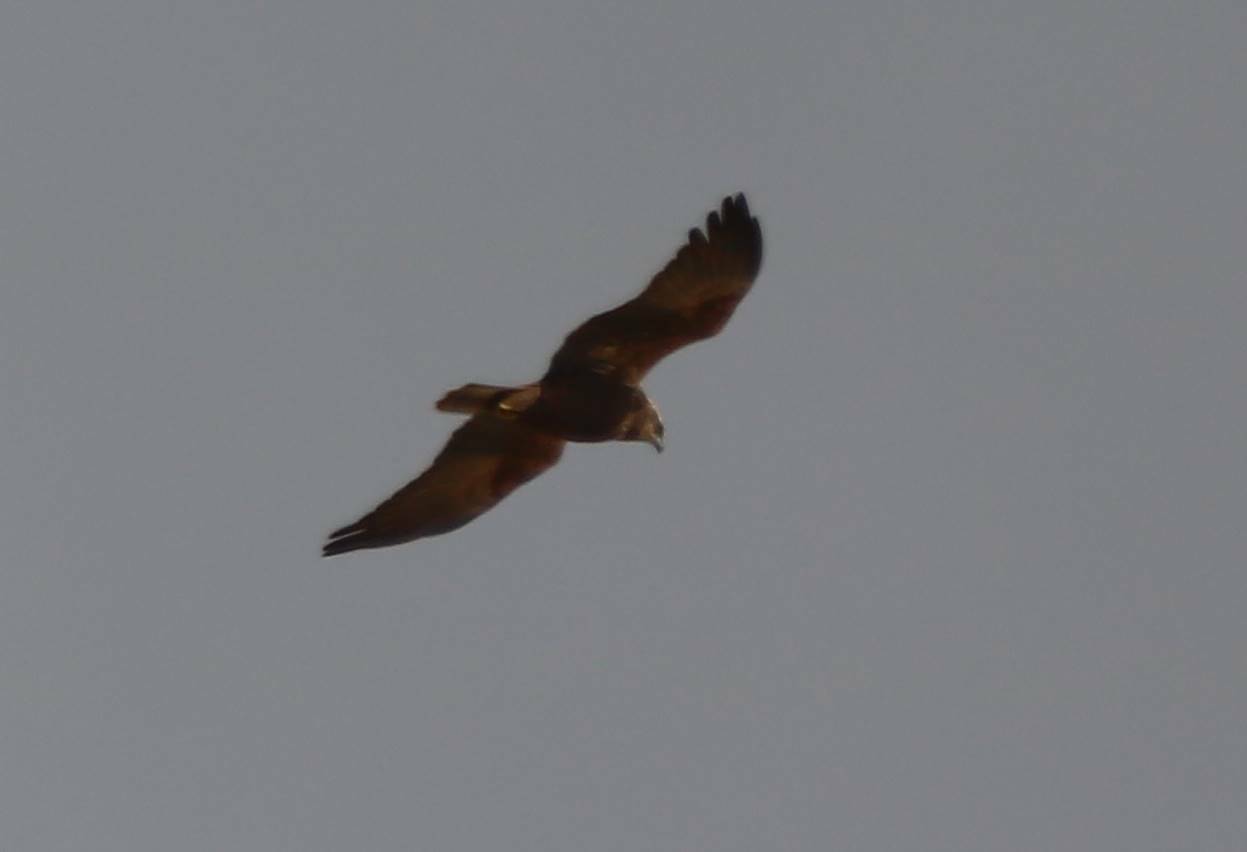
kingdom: Animalia
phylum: Chordata
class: Aves
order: Accipitriformes
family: Accipitridae
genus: Circus
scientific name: Circus aeruginosus
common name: Western marsh harrier
